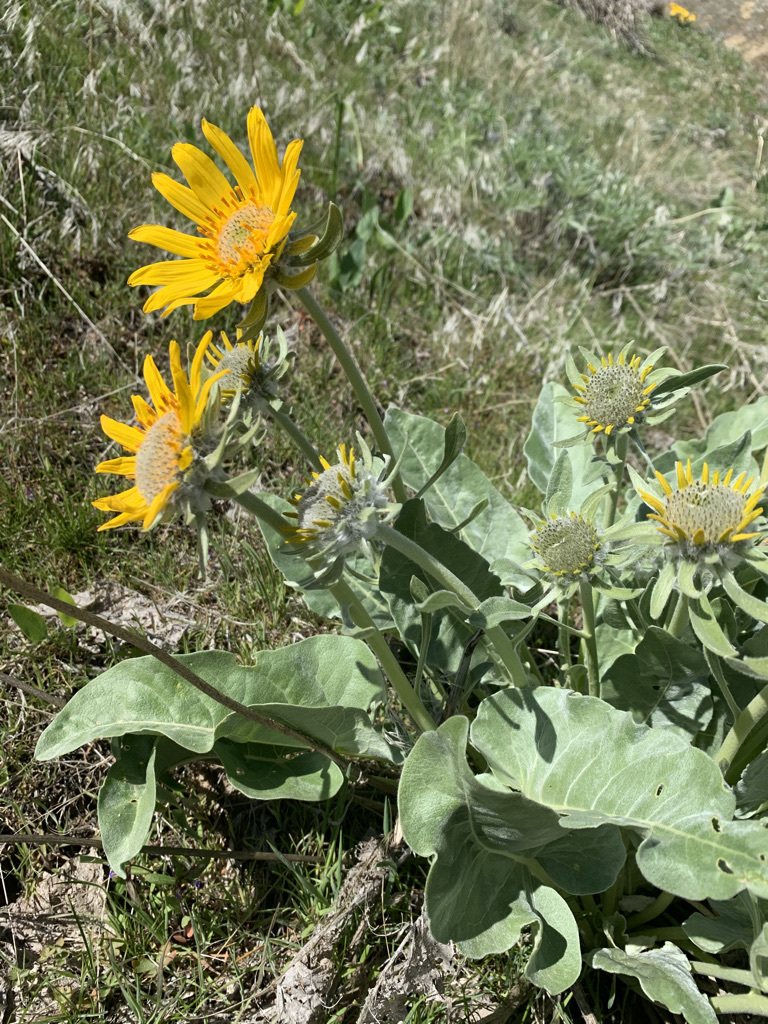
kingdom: Plantae
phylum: Tracheophyta
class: Magnoliopsida
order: Asterales
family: Asteraceae
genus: Wyethia
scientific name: Wyethia sagittata
